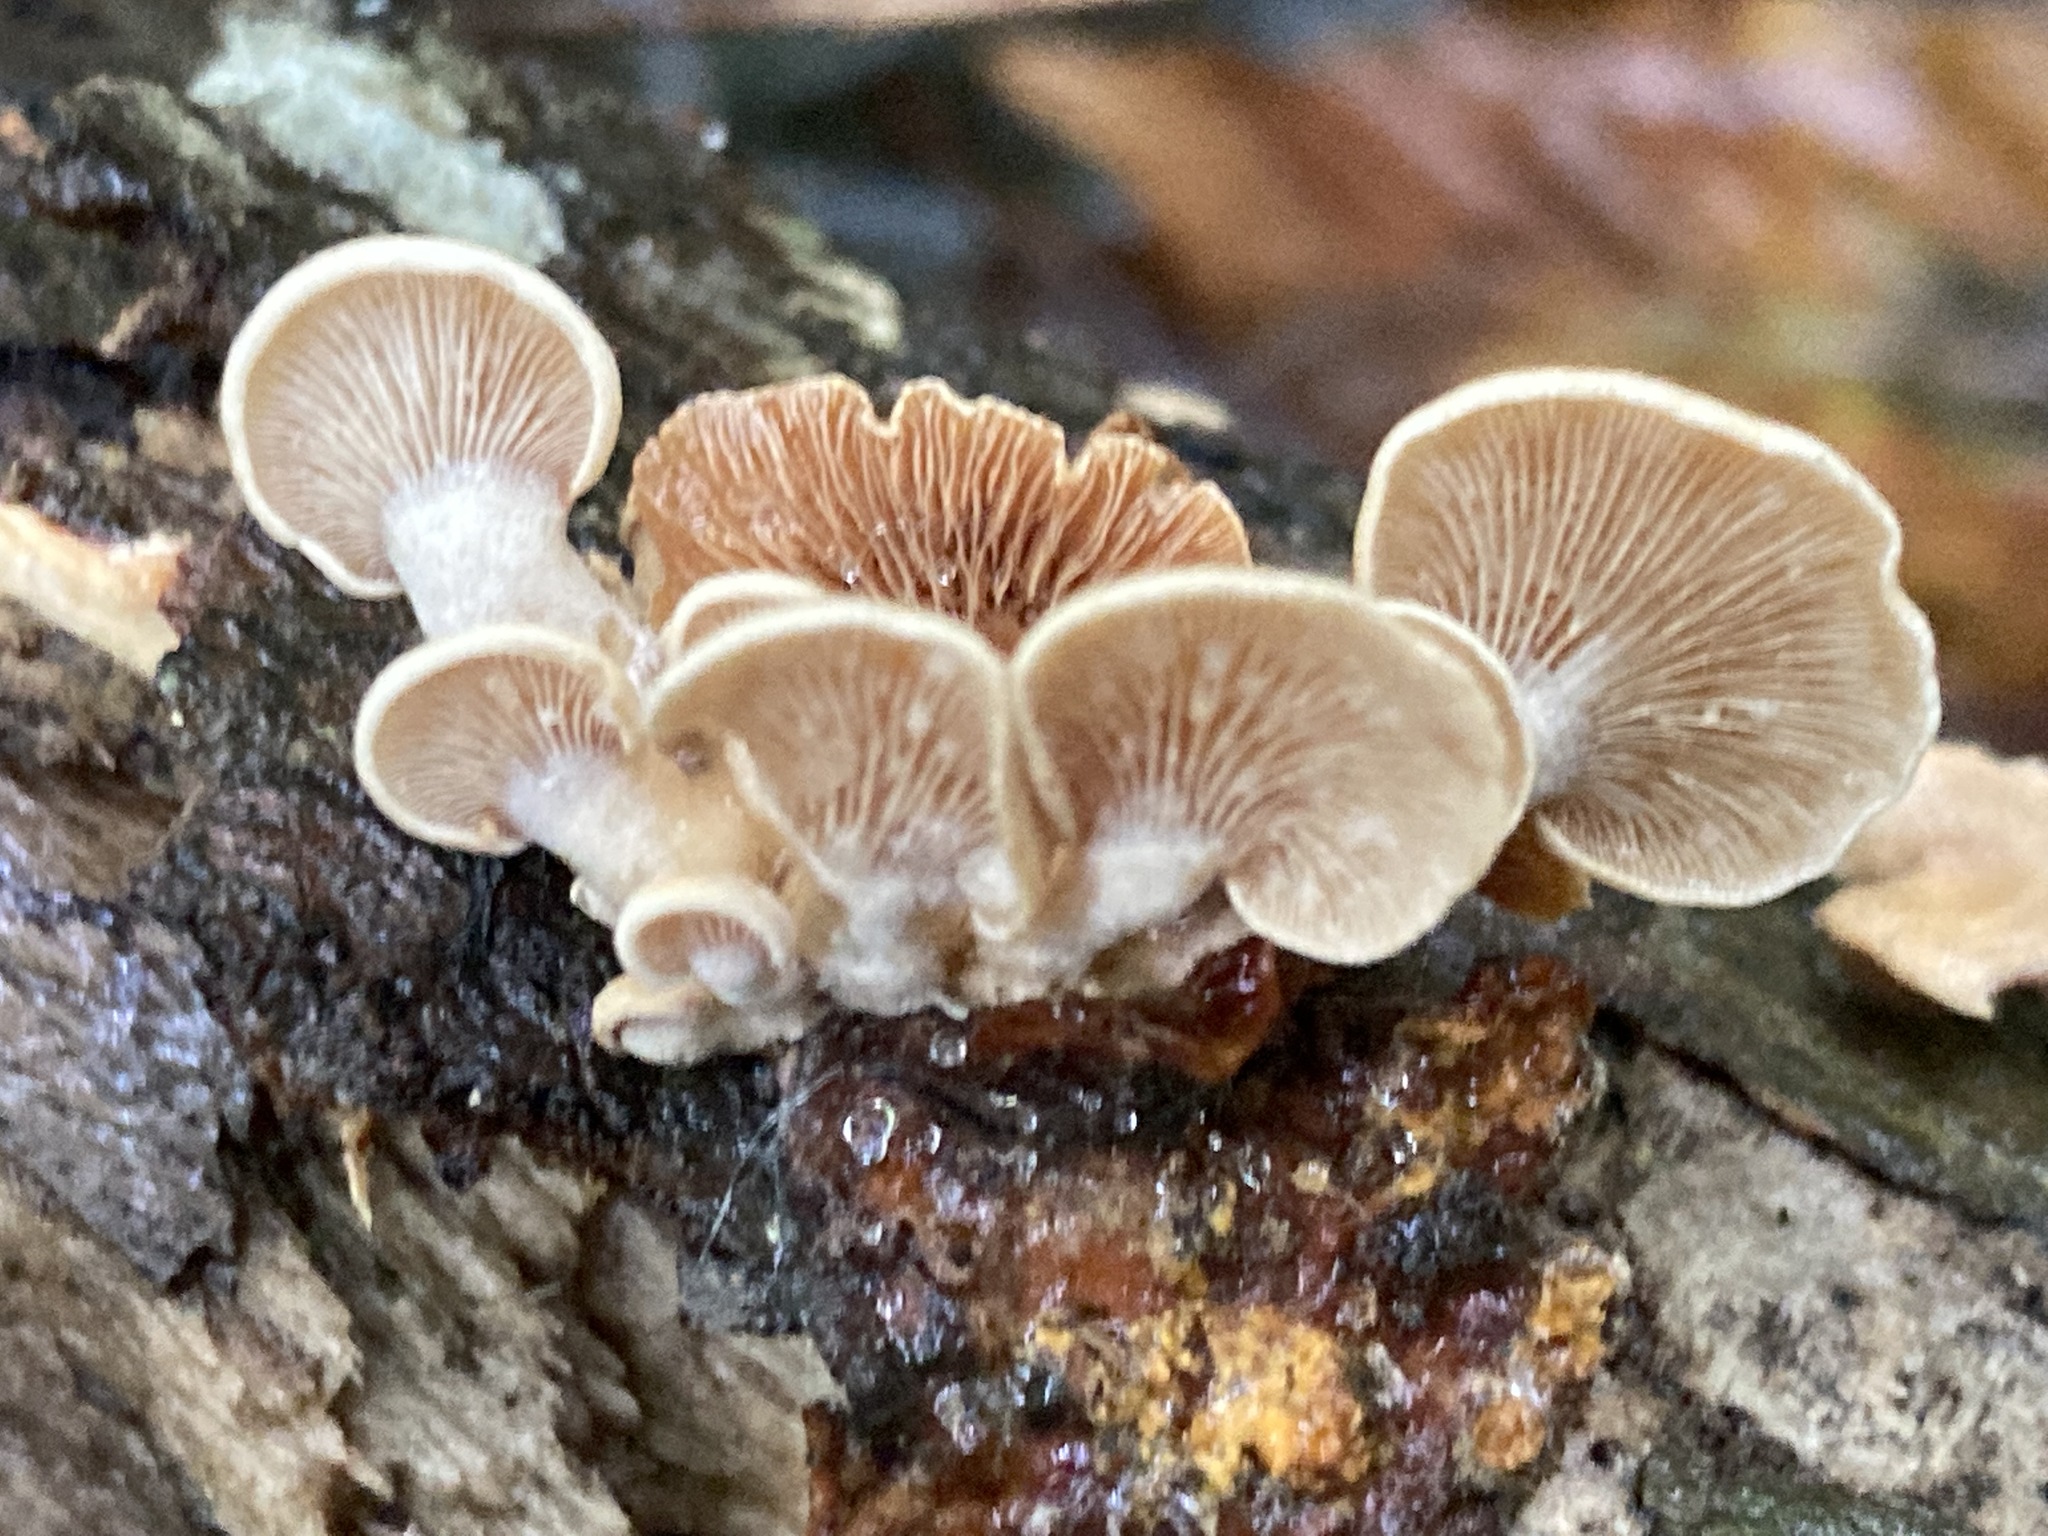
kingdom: Fungi
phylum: Basidiomycota
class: Agaricomycetes
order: Agaricales
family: Mycenaceae
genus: Panellus
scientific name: Panellus stipticus
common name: Bitter oysterling
